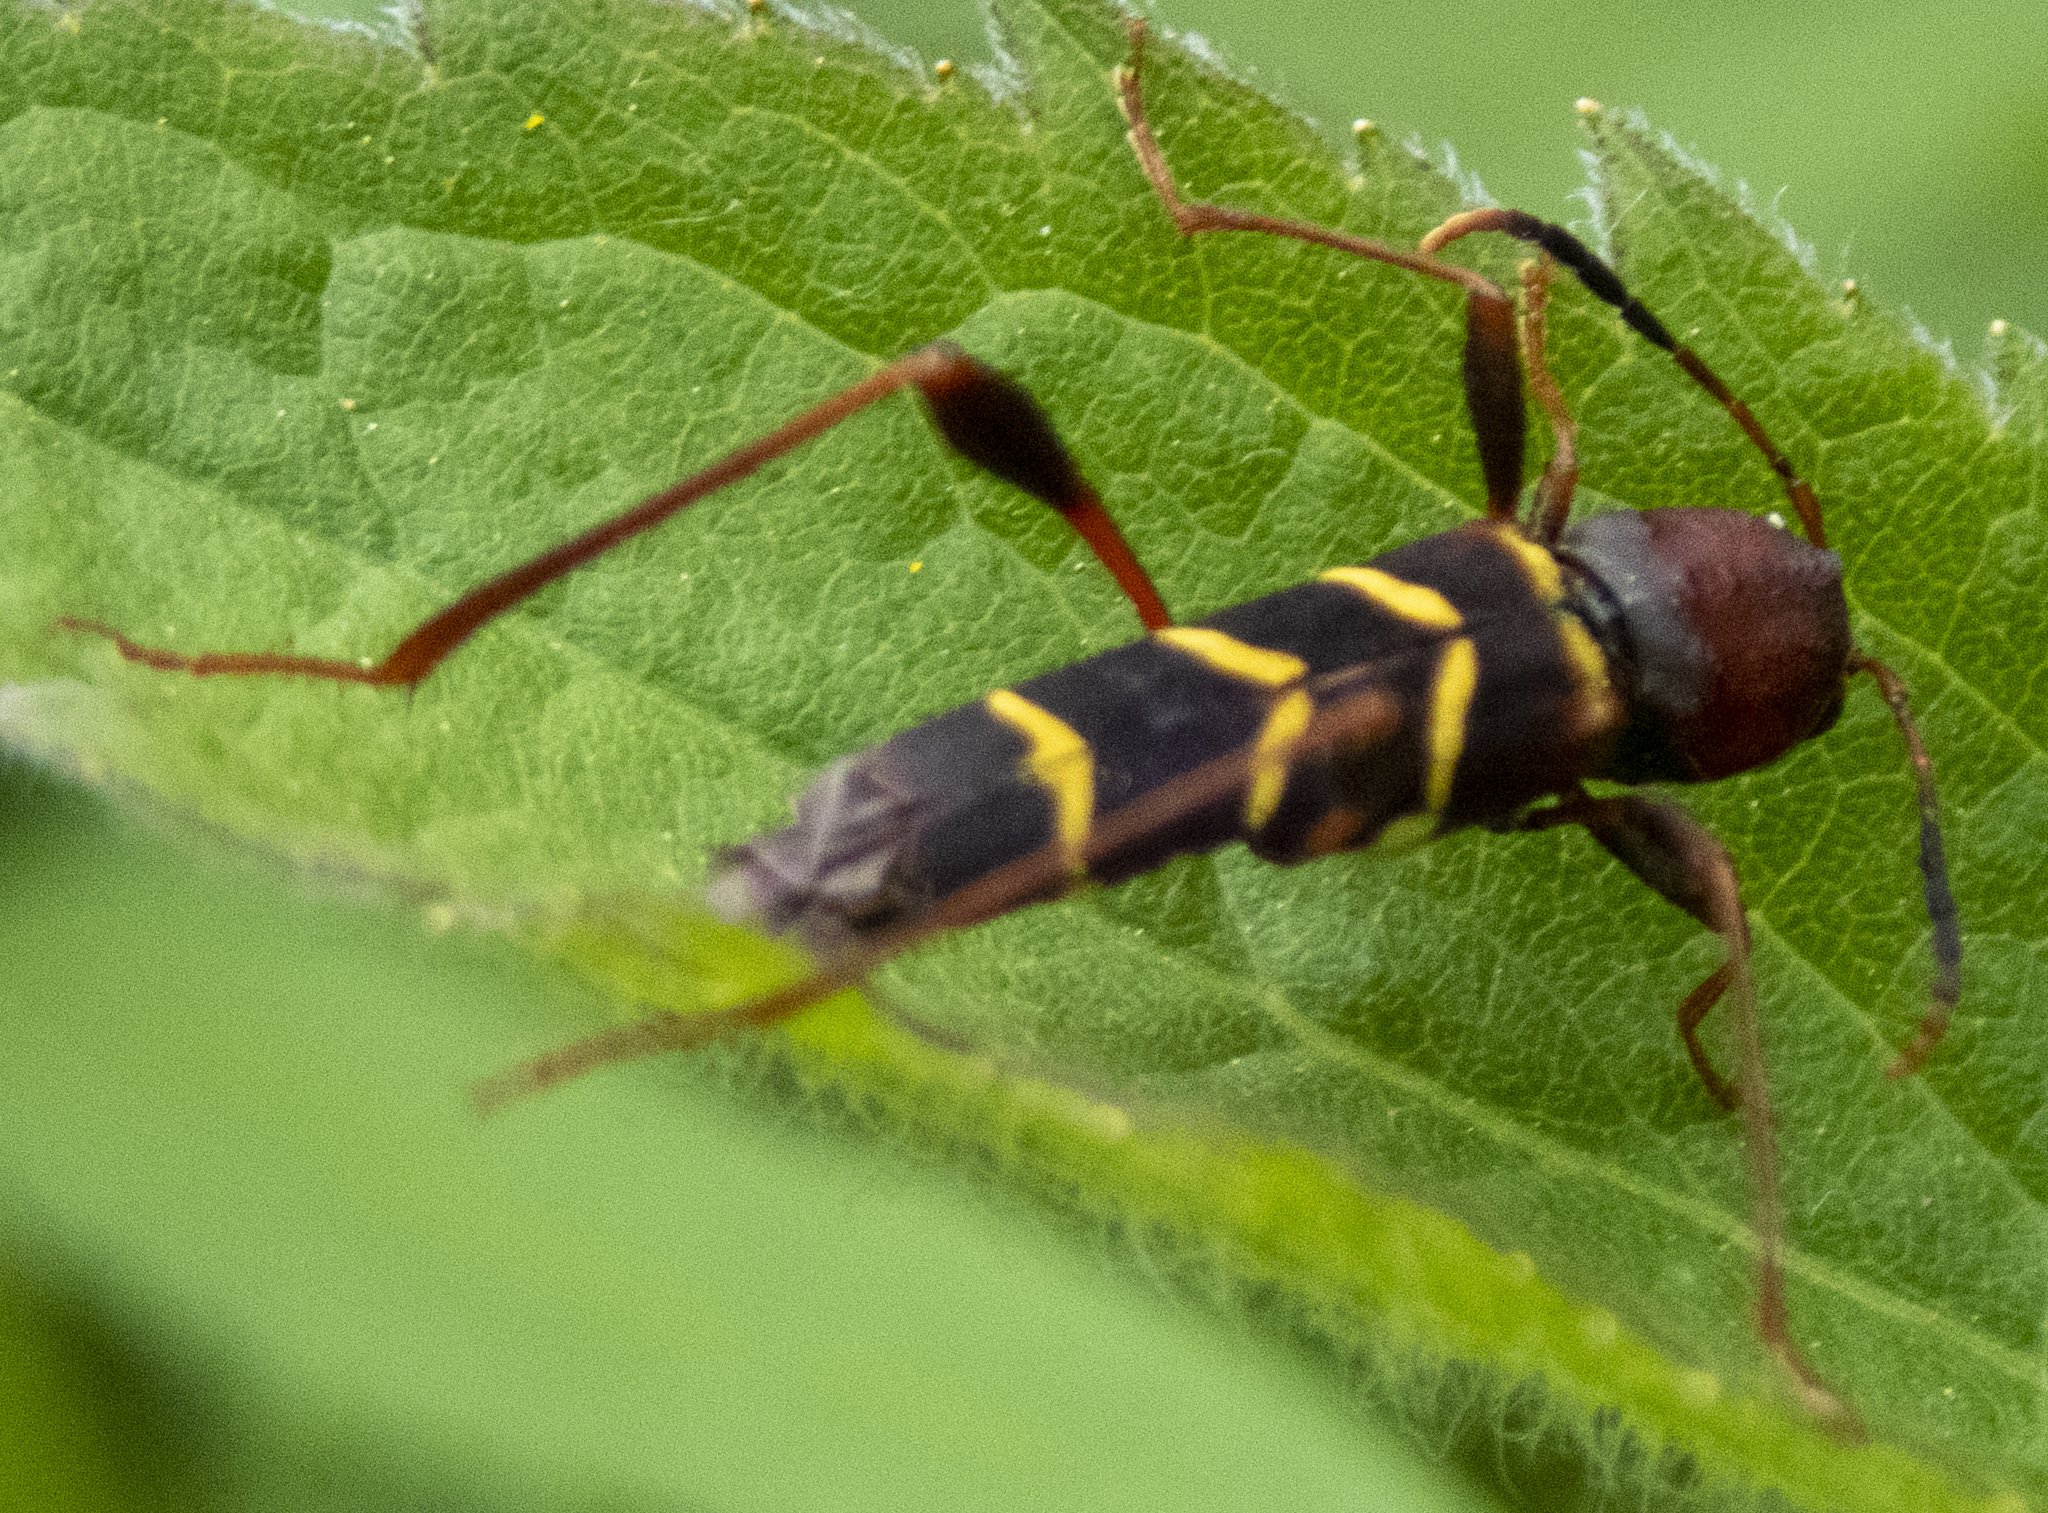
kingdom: Animalia
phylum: Arthropoda
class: Insecta
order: Coleoptera
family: Cerambycidae
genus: Neoclytus
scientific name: Neoclytus acuminatus
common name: Read-headed ash borer
